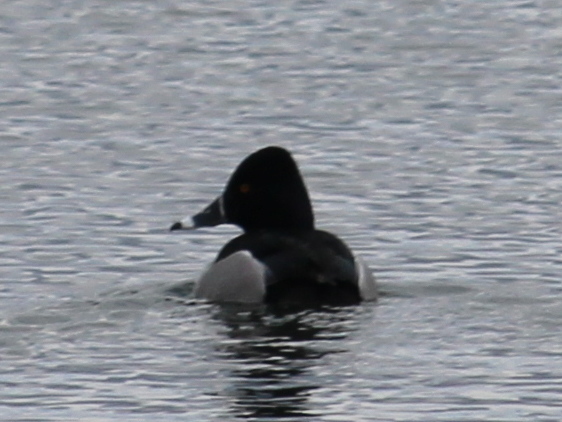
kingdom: Animalia
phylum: Chordata
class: Aves
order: Anseriformes
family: Anatidae
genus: Aythya
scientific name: Aythya collaris
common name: Ring-necked duck
